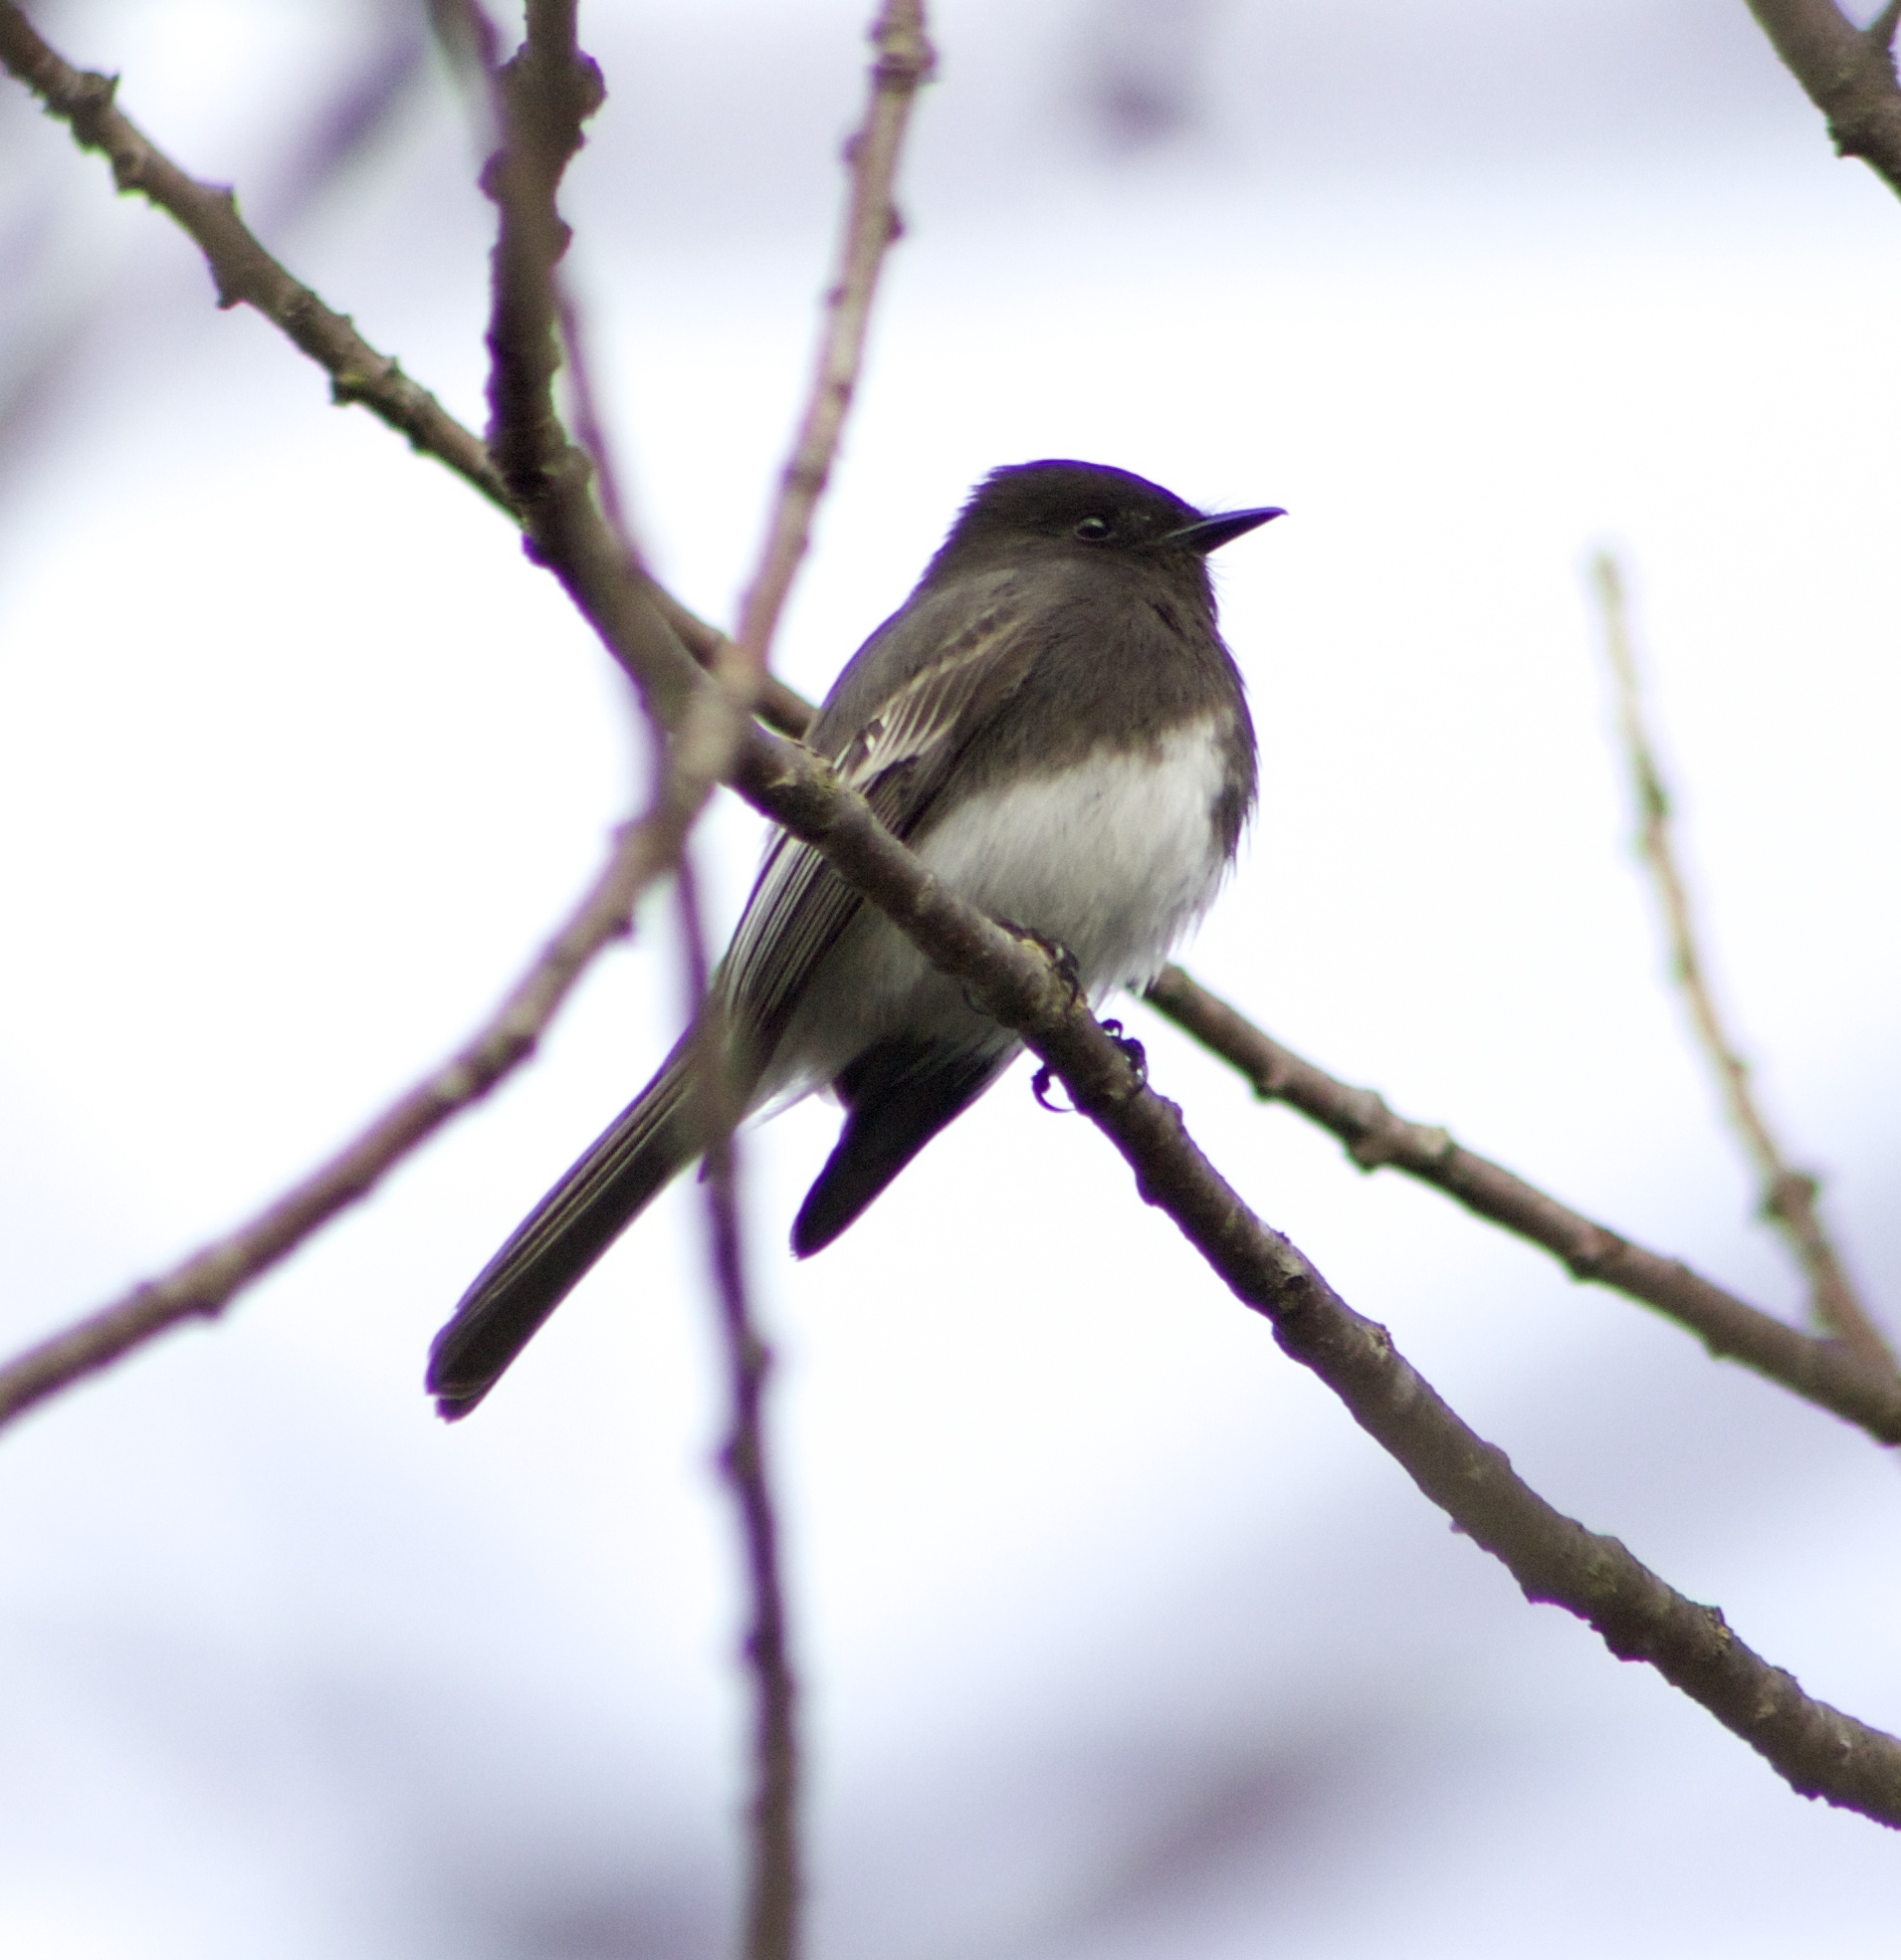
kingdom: Animalia
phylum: Chordata
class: Aves
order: Passeriformes
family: Tyrannidae
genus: Sayornis
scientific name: Sayornis nigricans
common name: Black phoebe
